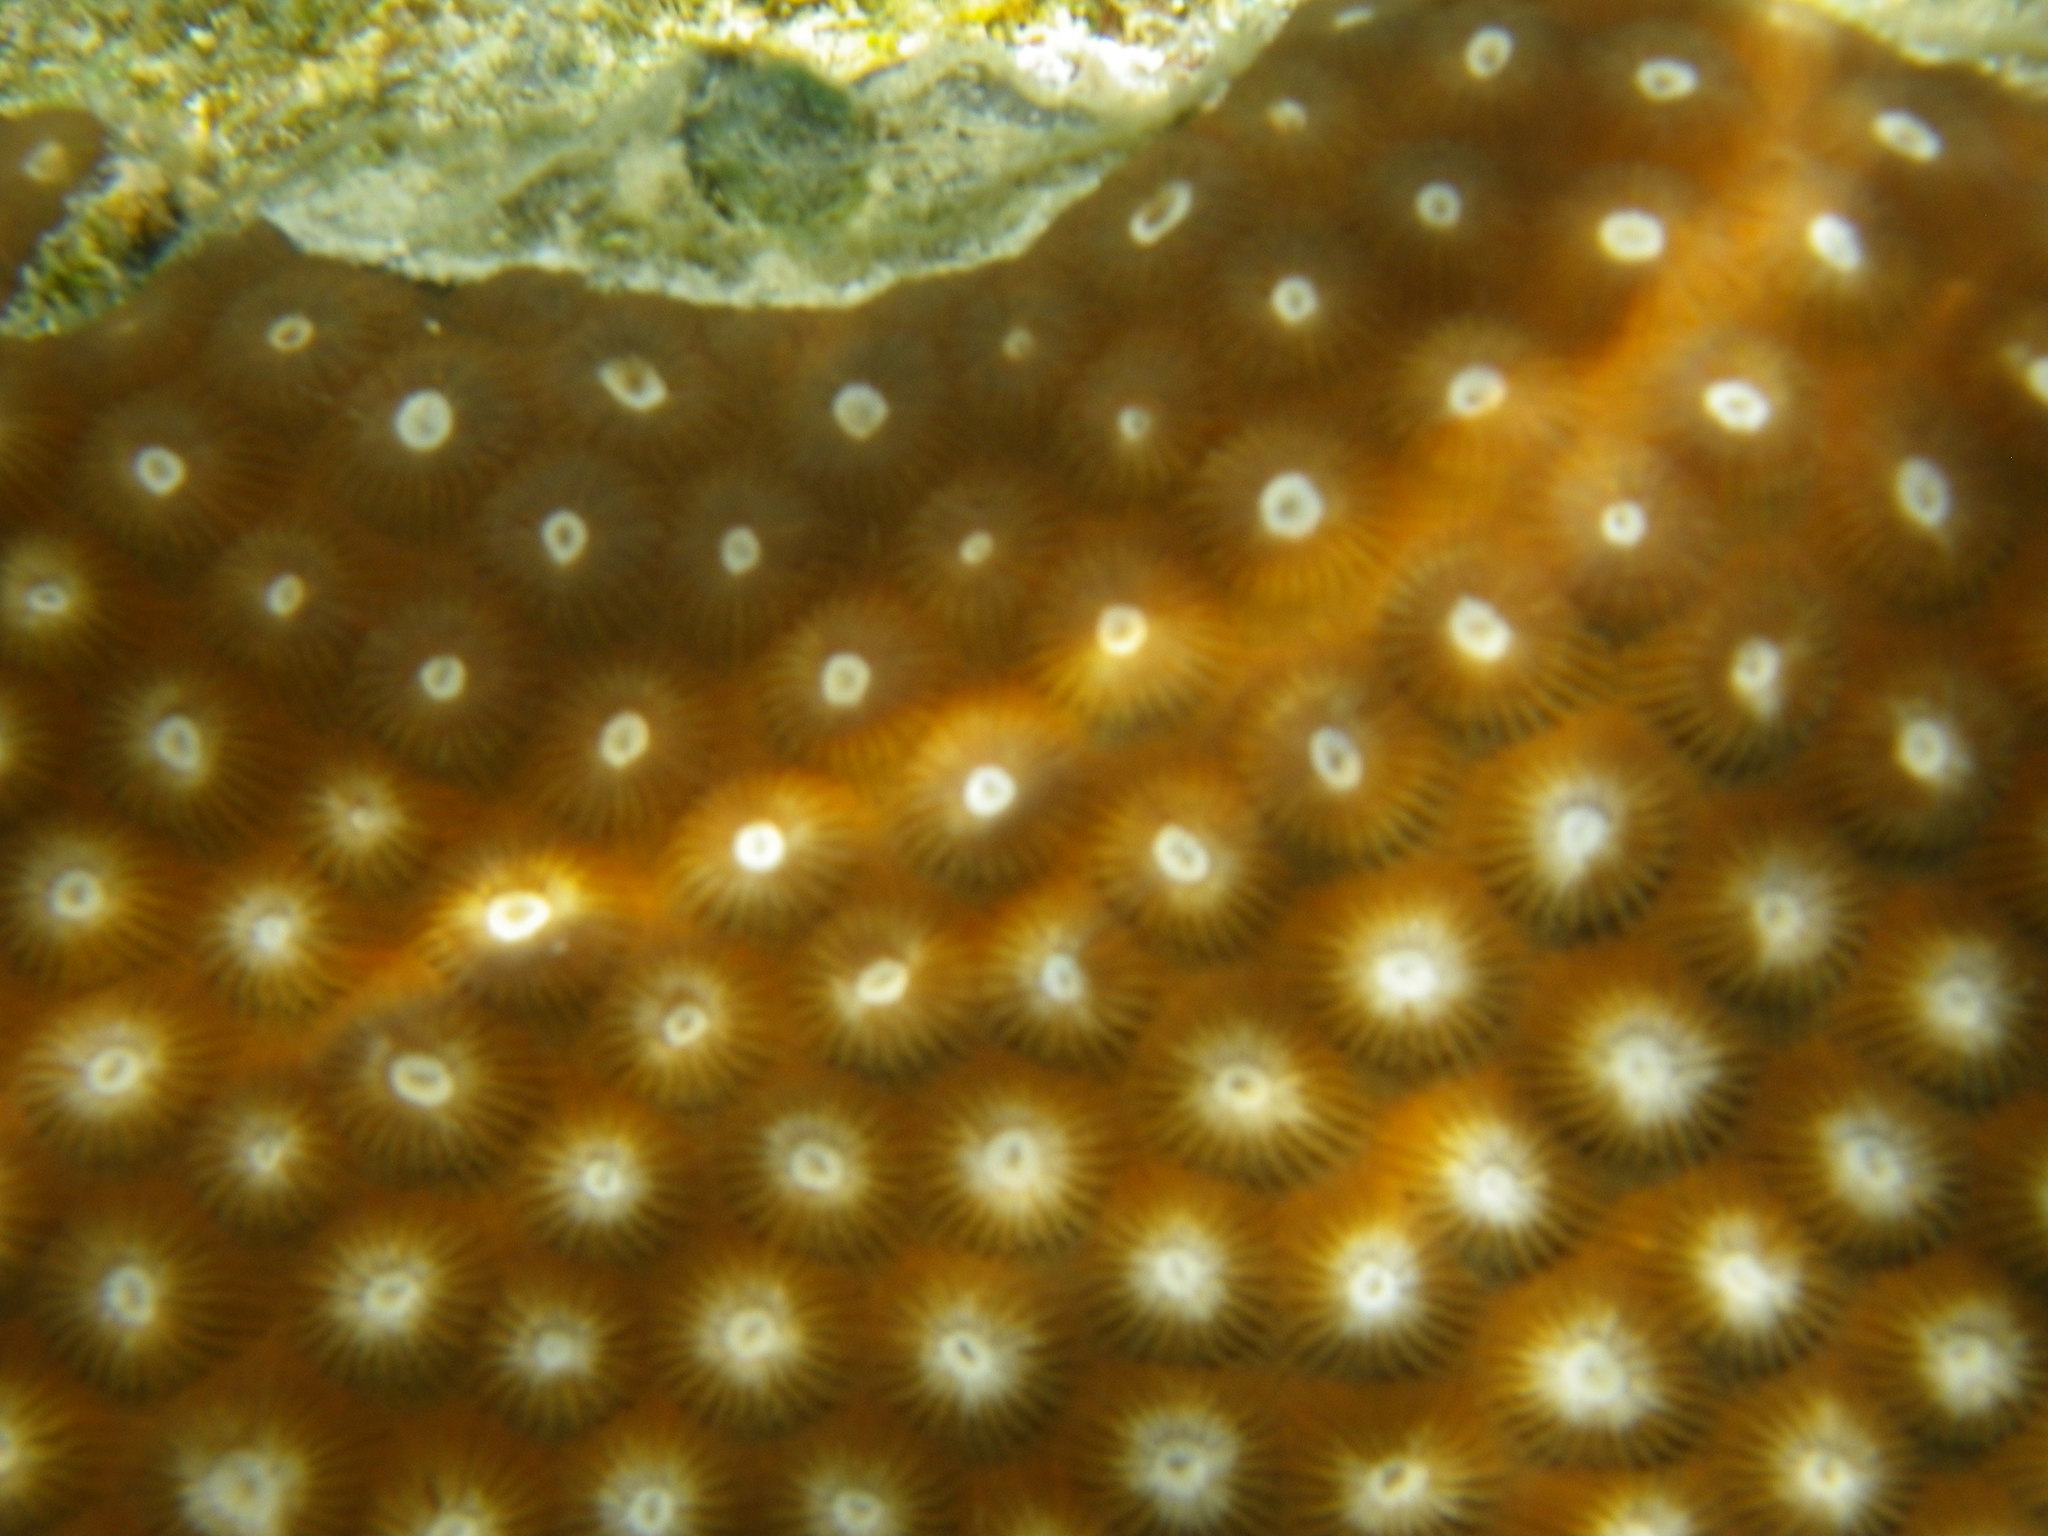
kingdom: Animalia
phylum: Cnidaria
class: Anthozoa
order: Scleractinia
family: Diploastraeidae
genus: Diploastrea
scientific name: Diploastrea heliopora
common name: Double-star coral
